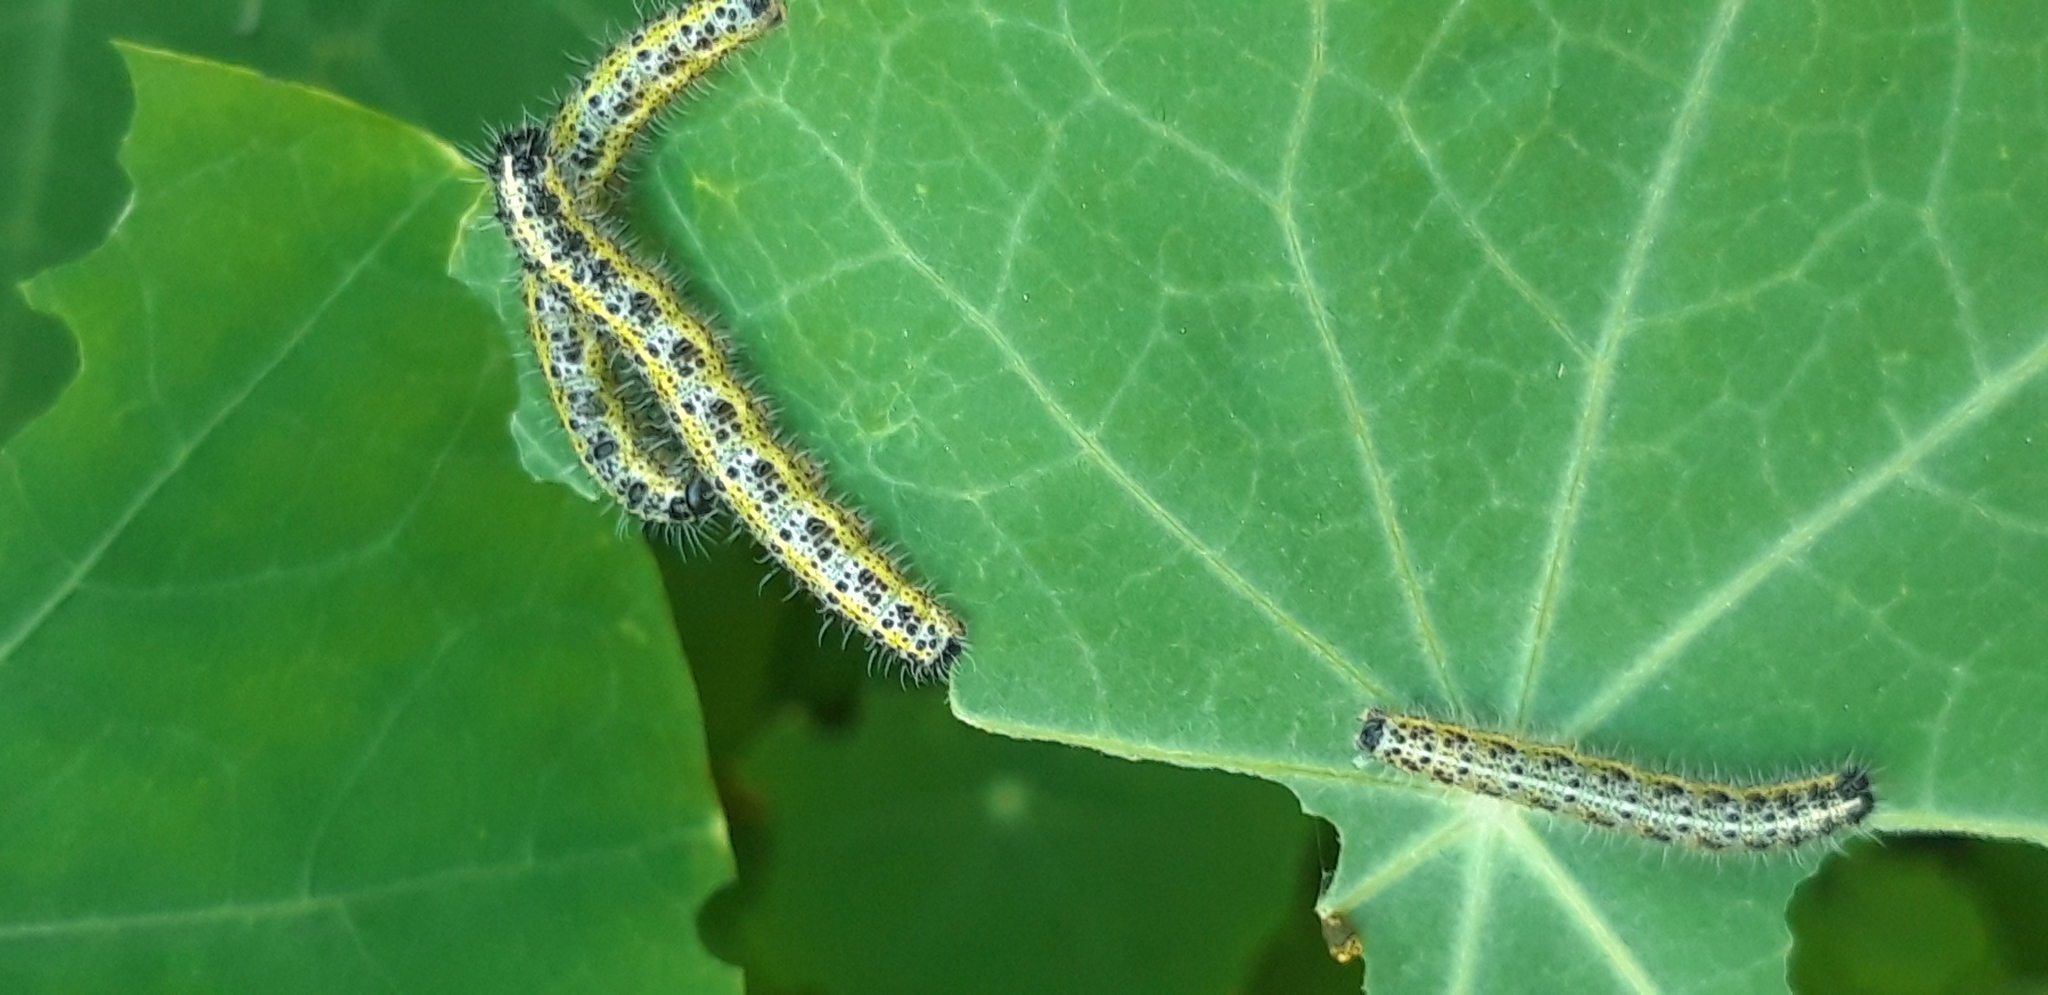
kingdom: Animalia
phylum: Arthropoda
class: Insecta
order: Lepidoptera
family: Pieridae
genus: Pieris
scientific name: Pieris brassicae
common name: Large white
